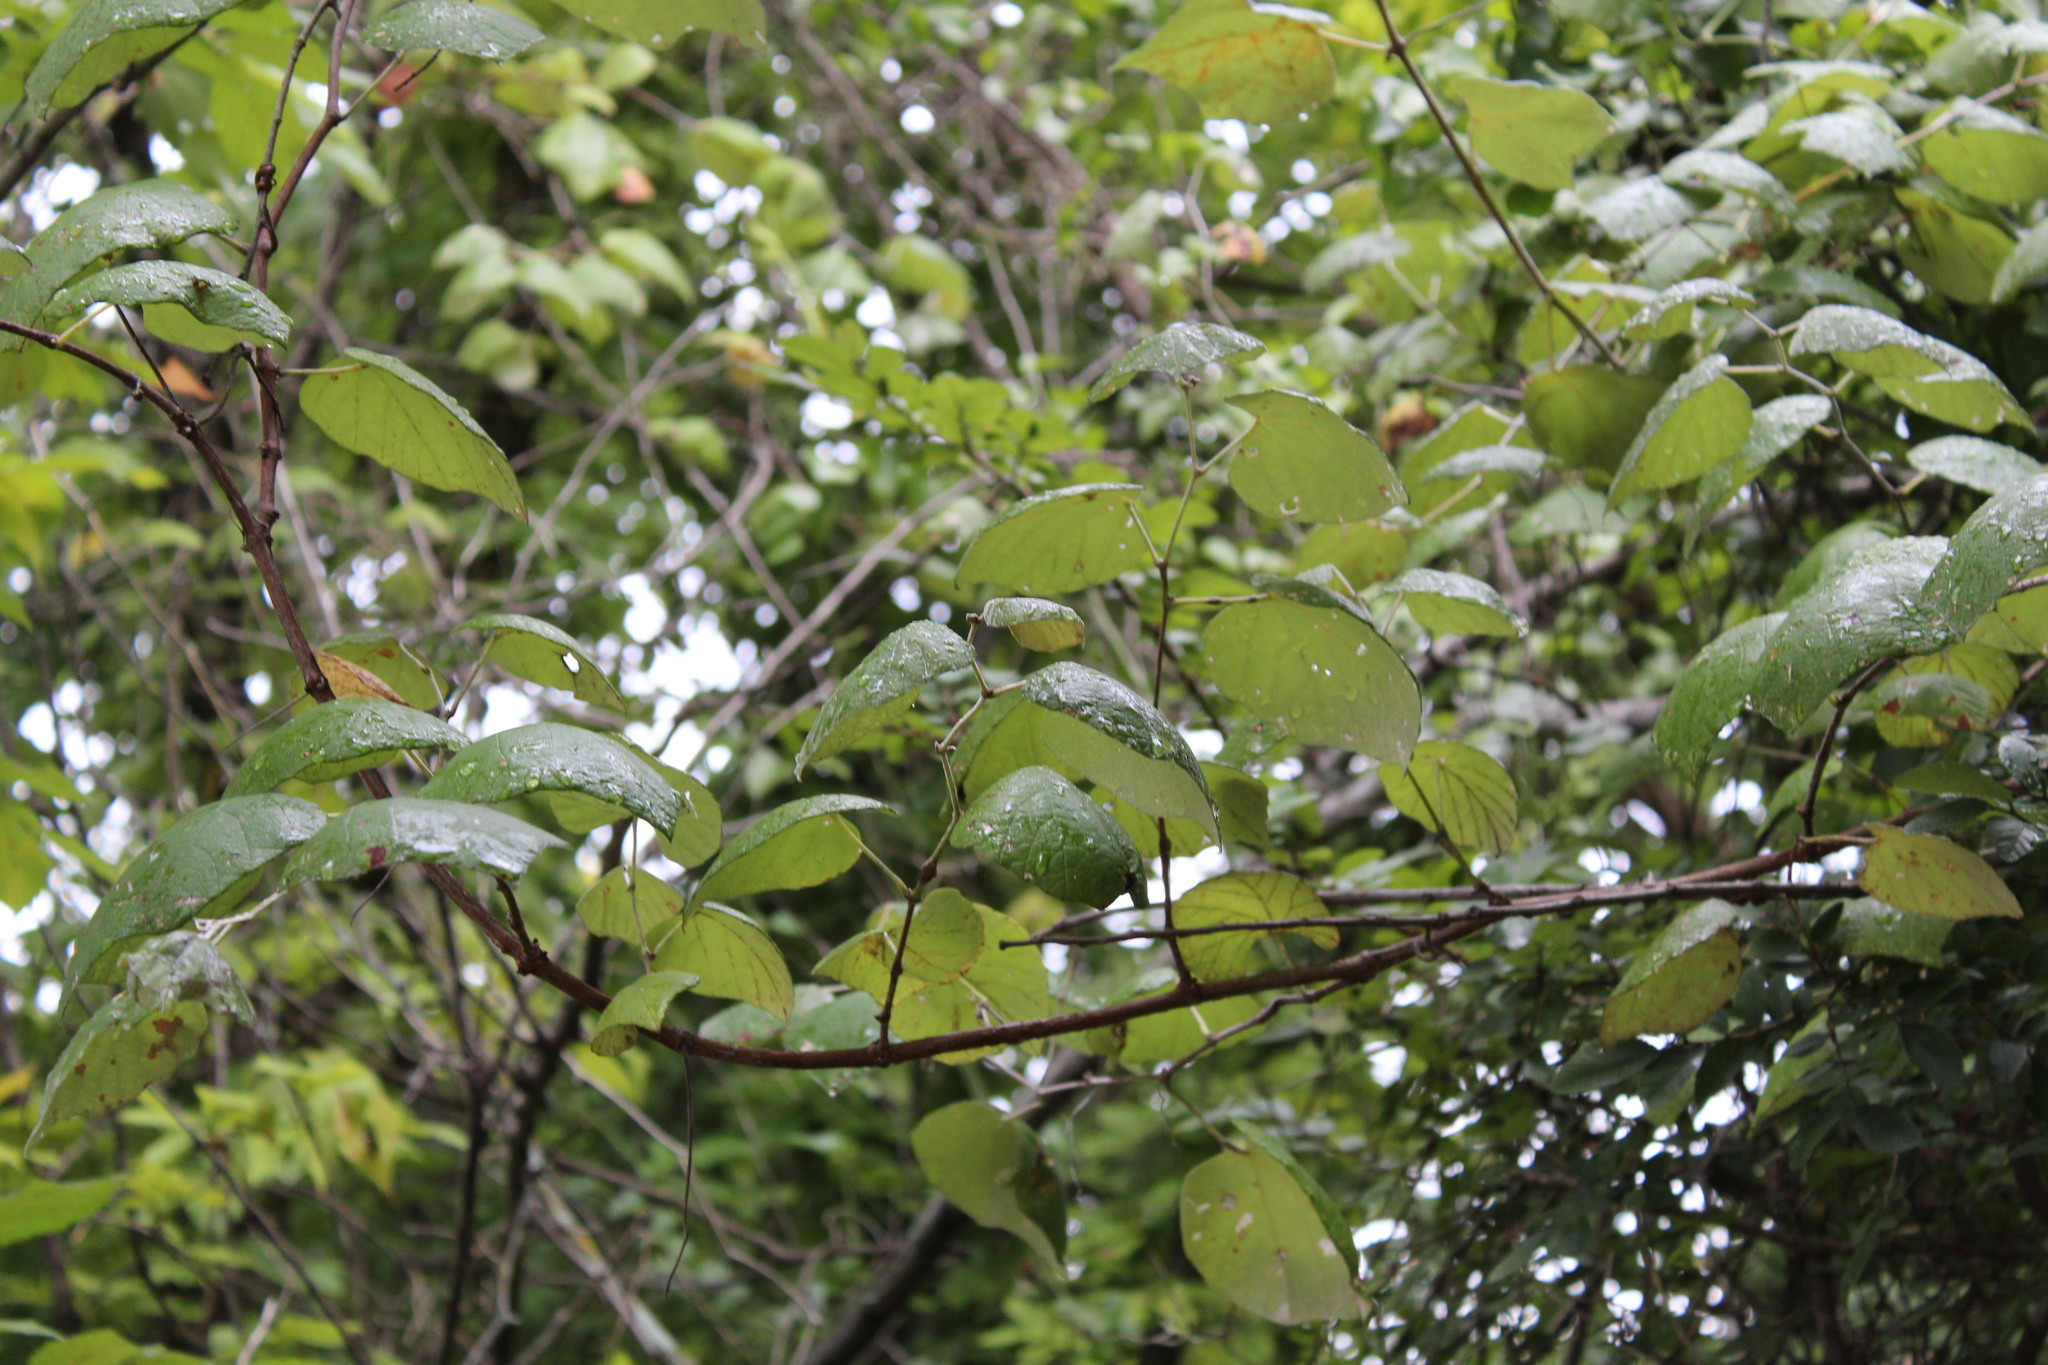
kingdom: Plantae
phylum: Tracheophyta
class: Magnoliopsida
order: Vitales
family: Vitaceae
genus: Vitis
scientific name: Vitis mustangensis
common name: Mustang grape
